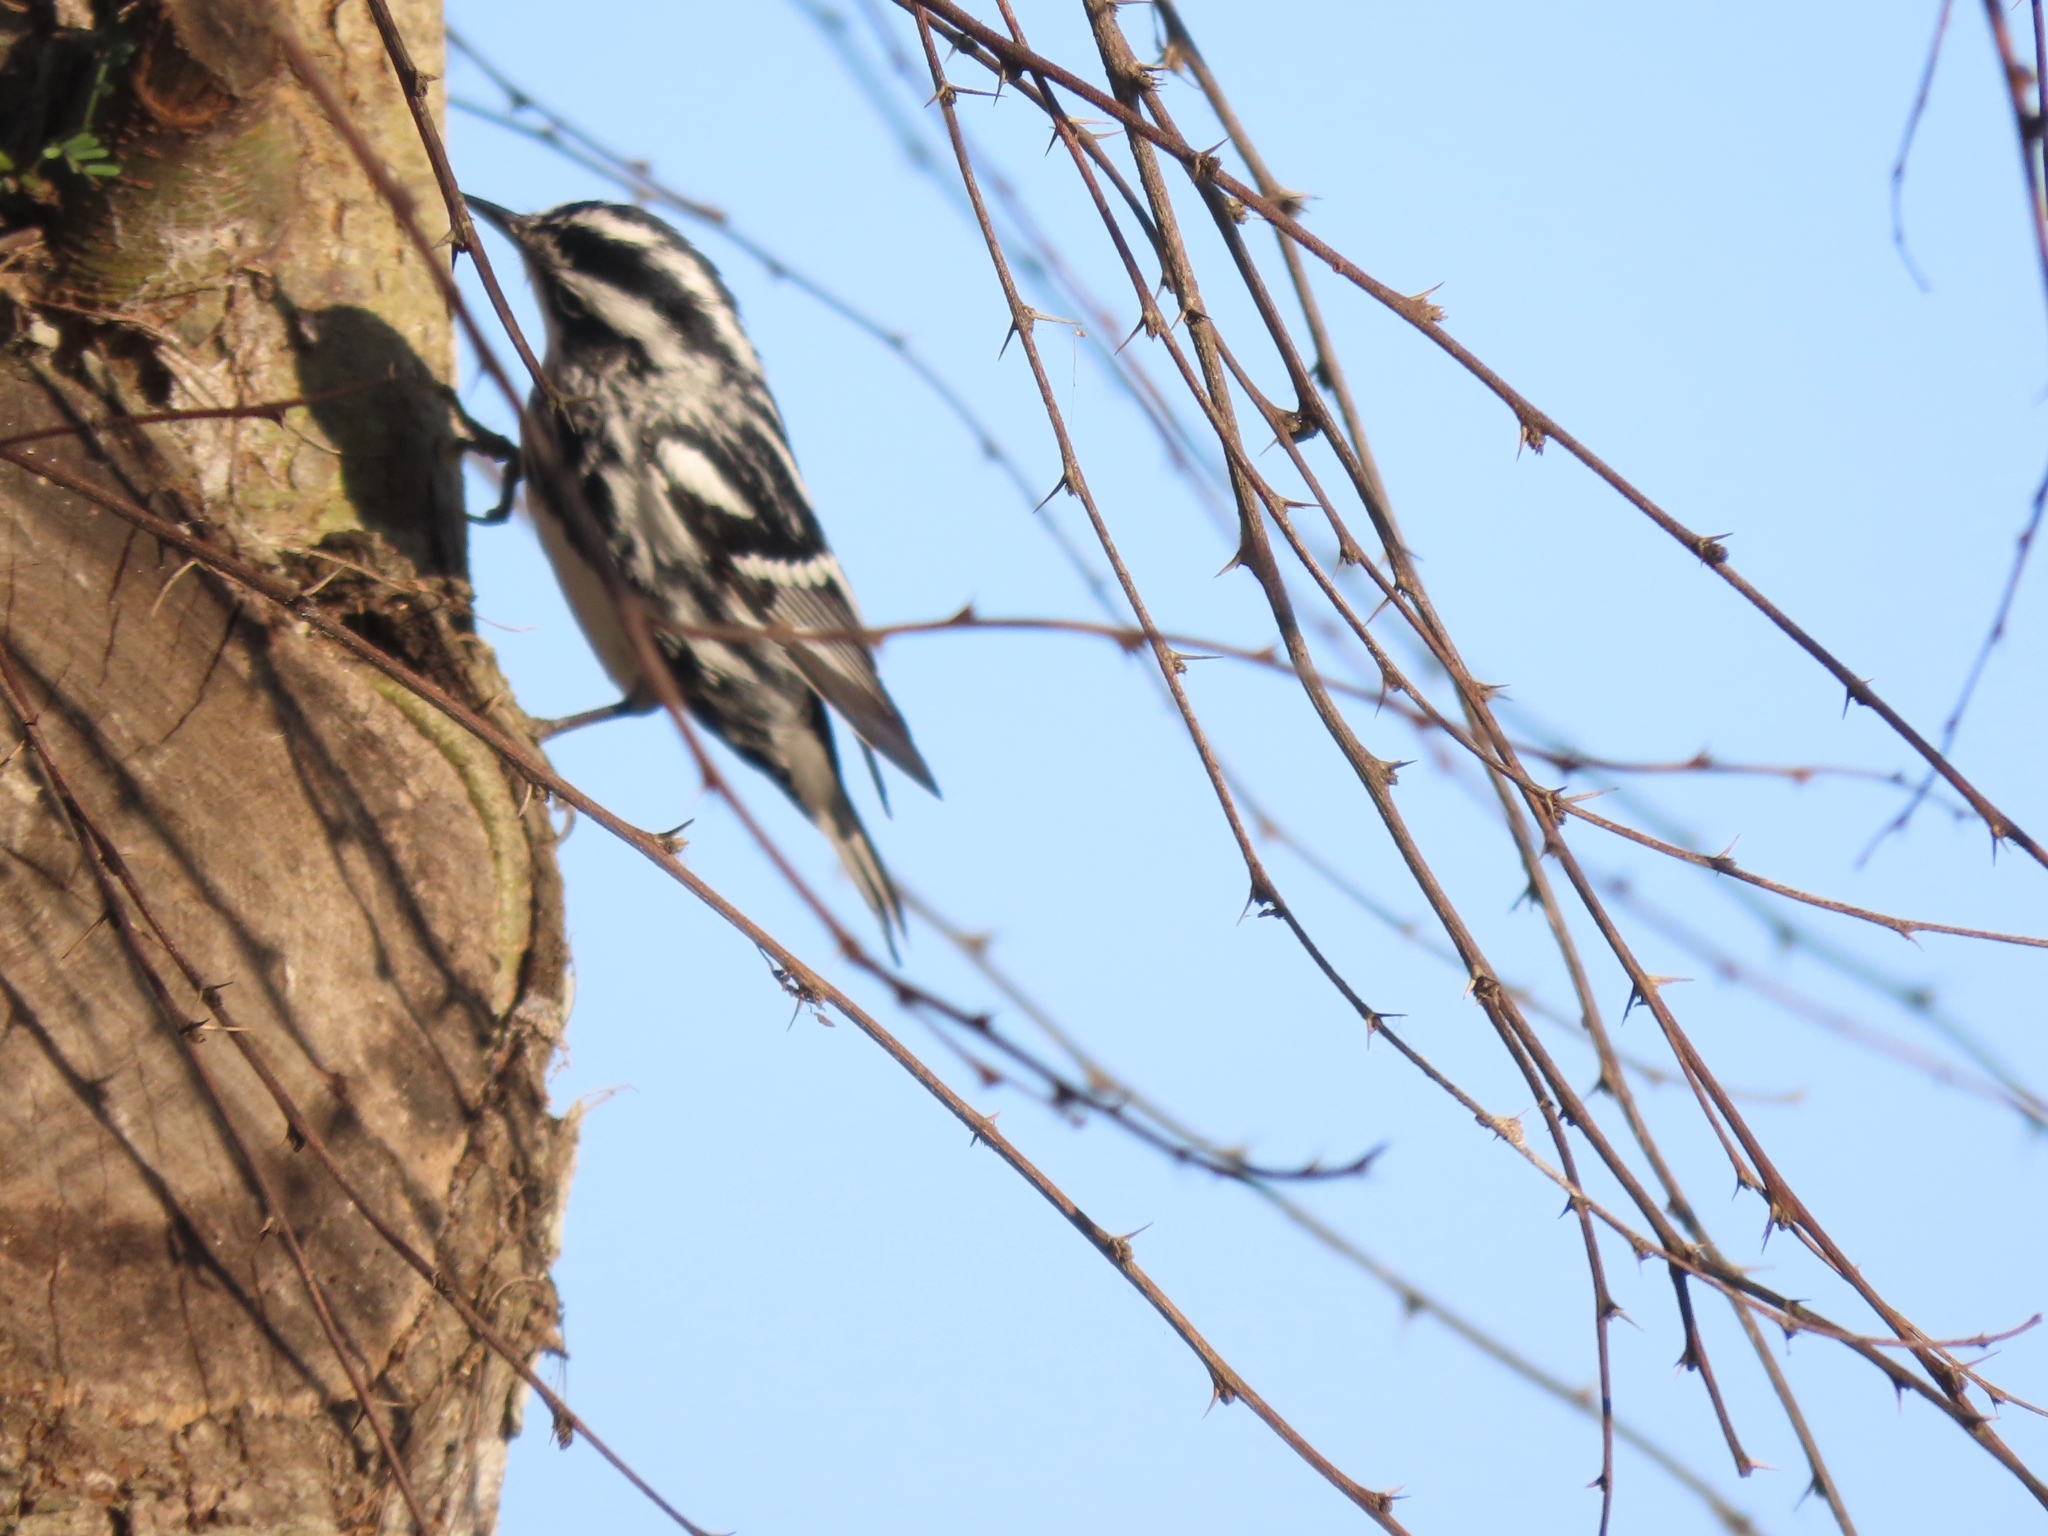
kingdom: Animalia
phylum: Chordata
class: Aves
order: Passeriformes
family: Parulidae
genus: Mniotilta
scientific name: Mniotilta varia
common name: Black-and-white warbler
